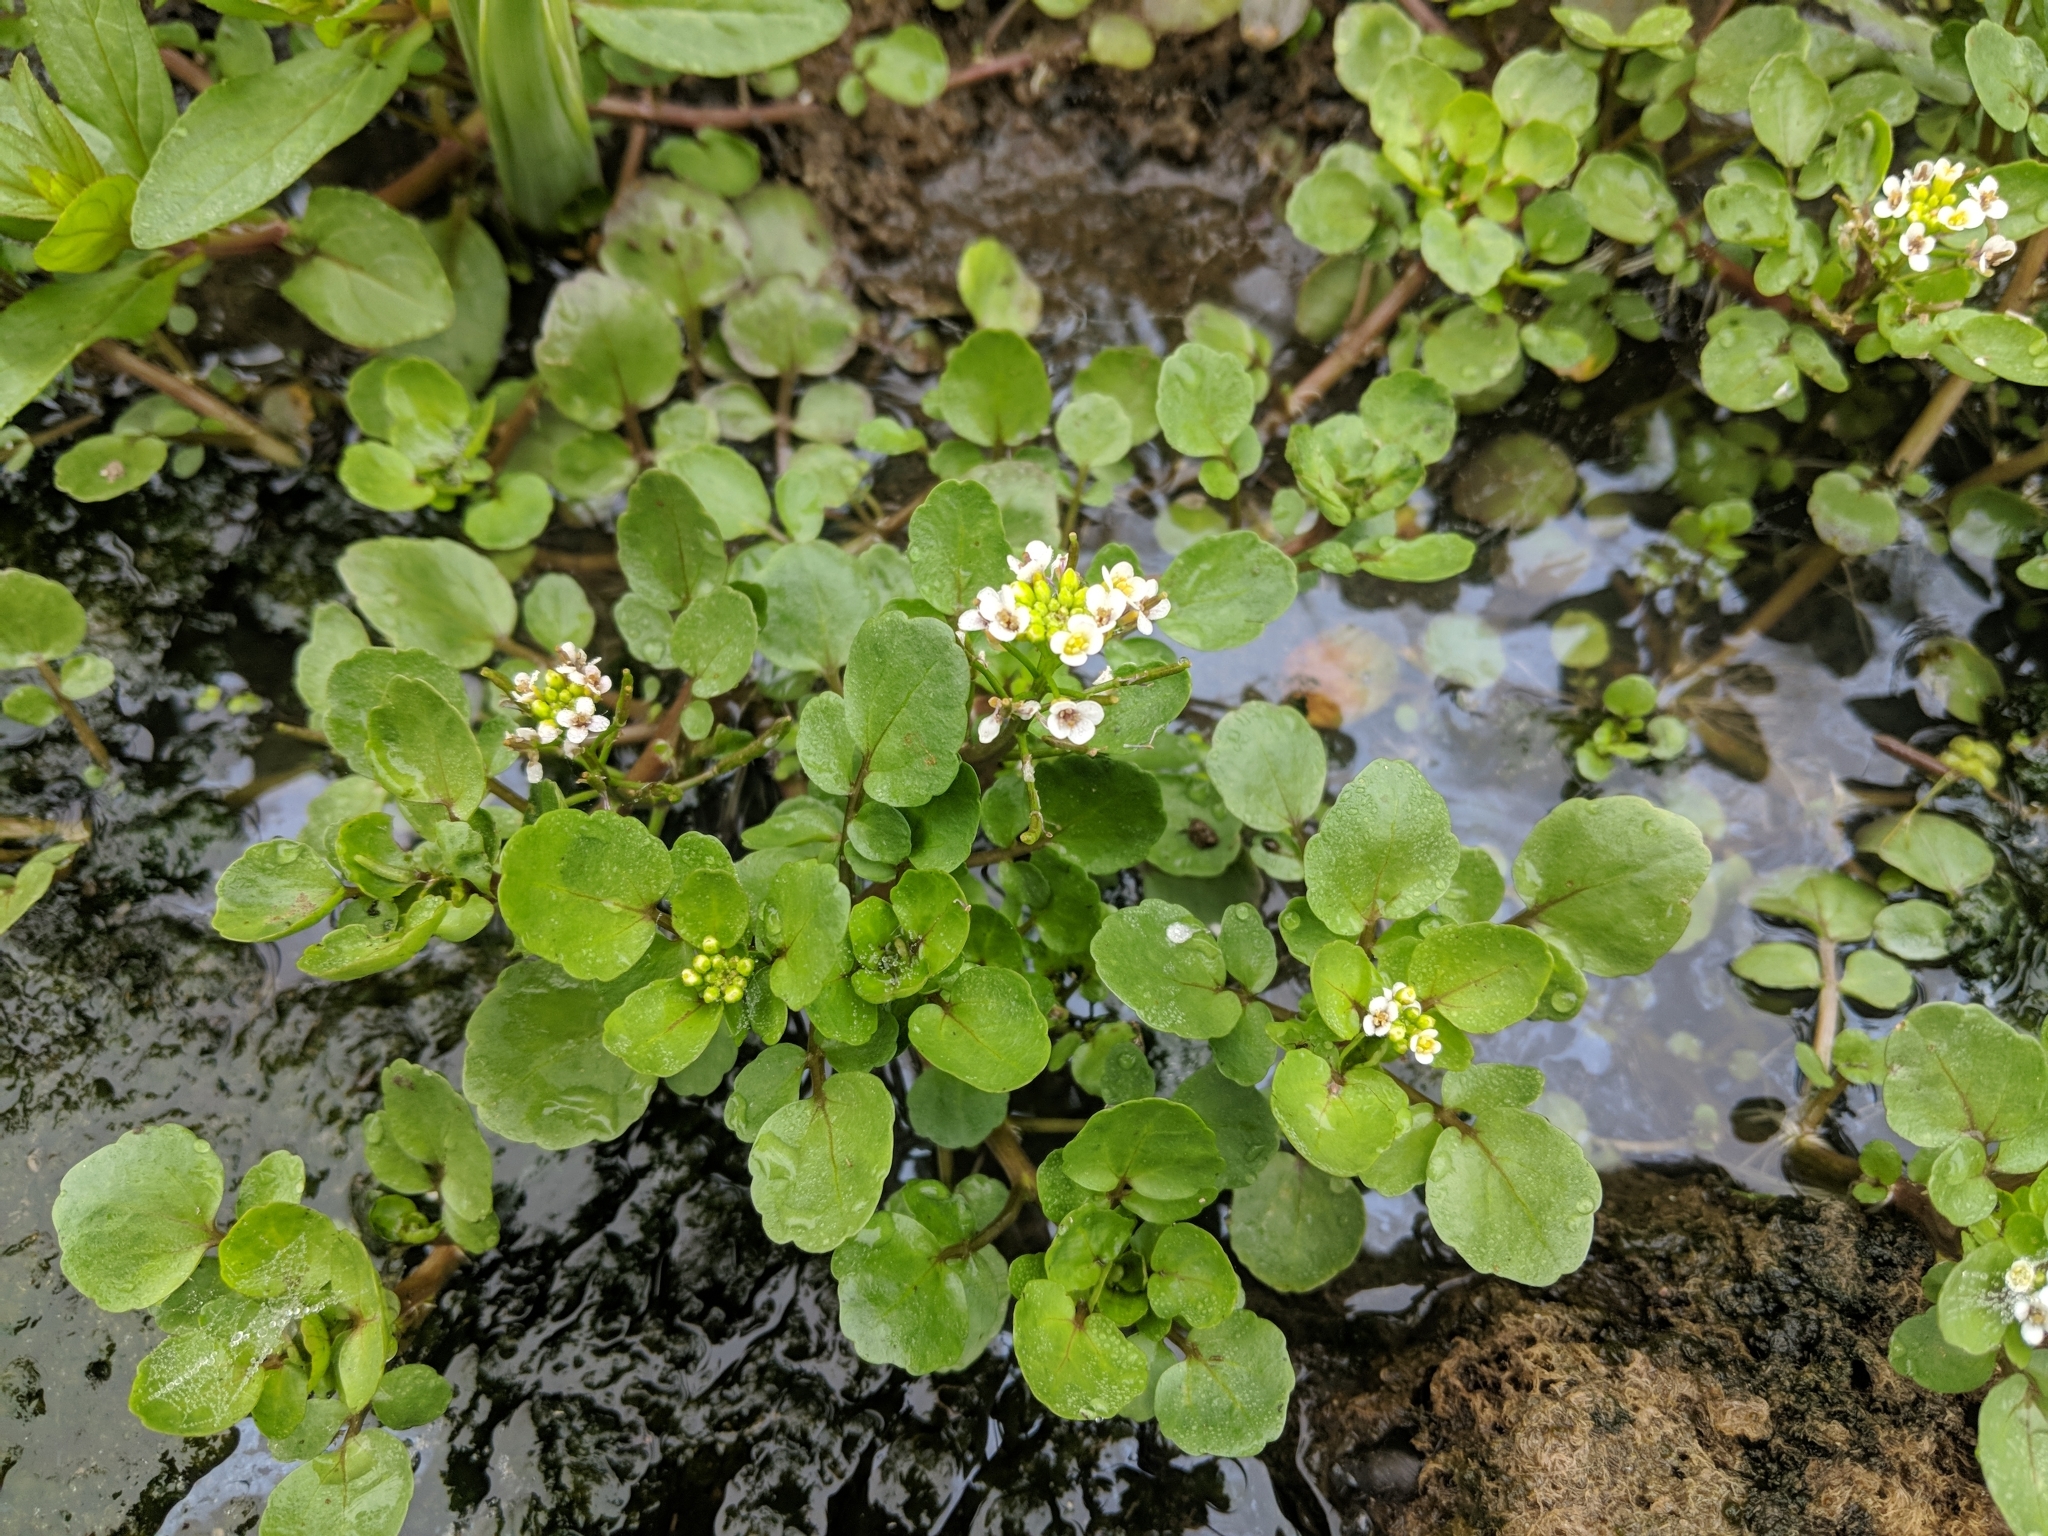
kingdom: Plantae
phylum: Tracheophyta
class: Magnoliopsida
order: Brassicales
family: Brassicaceae
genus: Nasturtium
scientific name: Nasturtium officinale
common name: Watercress
